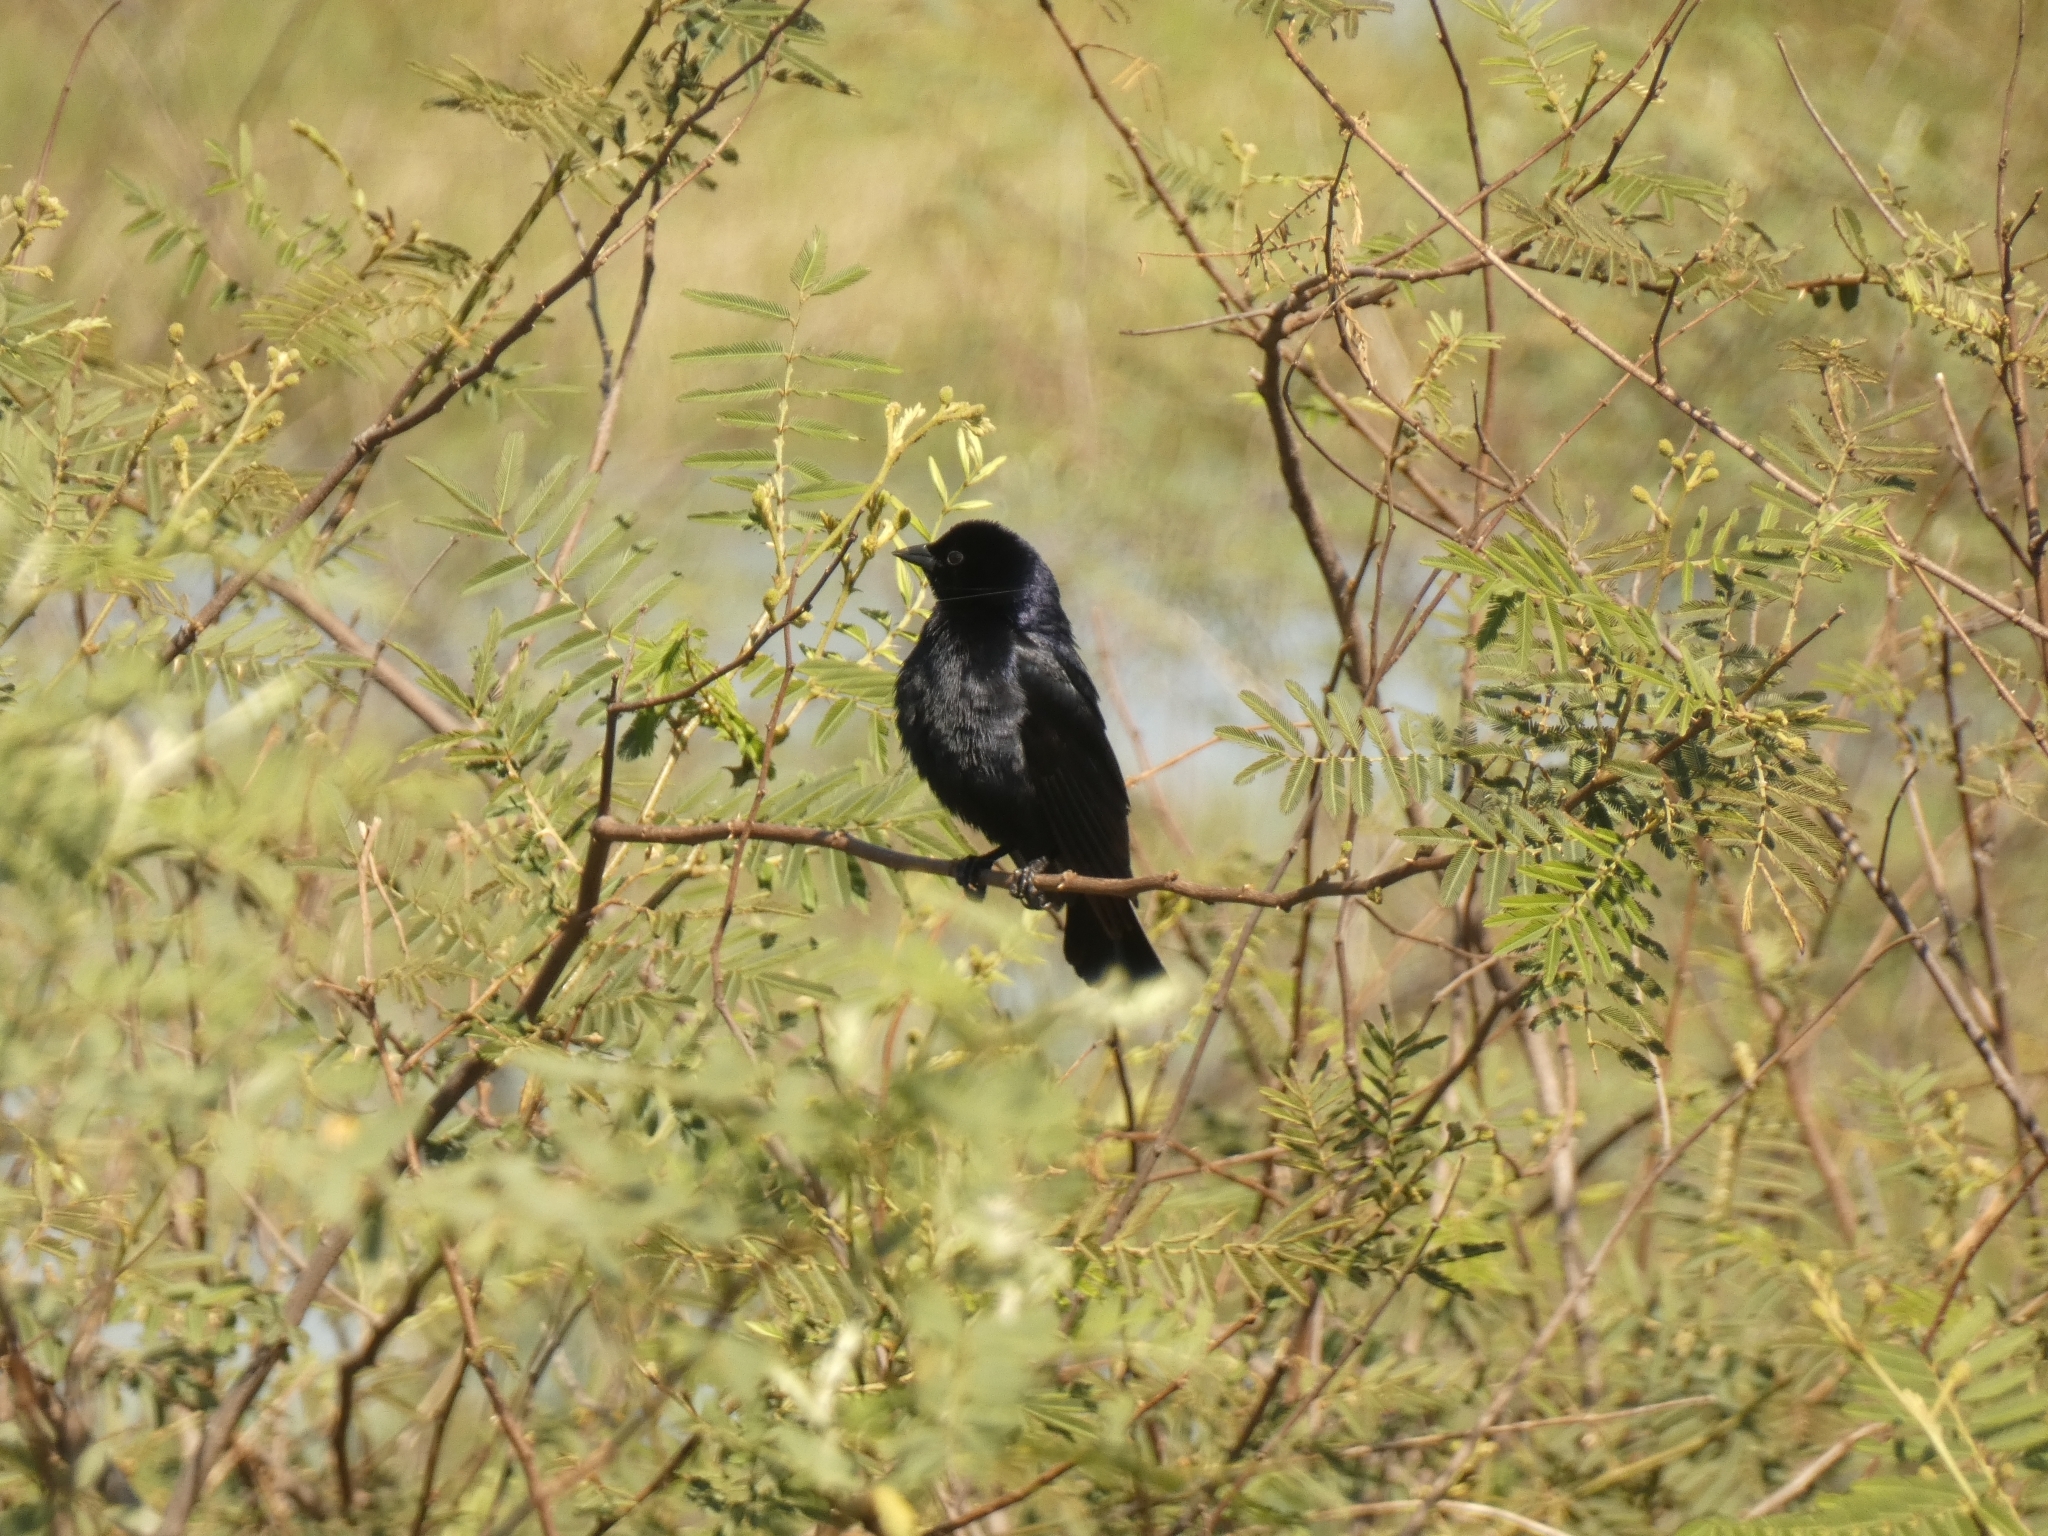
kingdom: Animalia
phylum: Chordata
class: Aves
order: Passeriformes
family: Icteridae
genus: Molothrus
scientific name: Molothrus bonariensis
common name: Shiny cowbird
